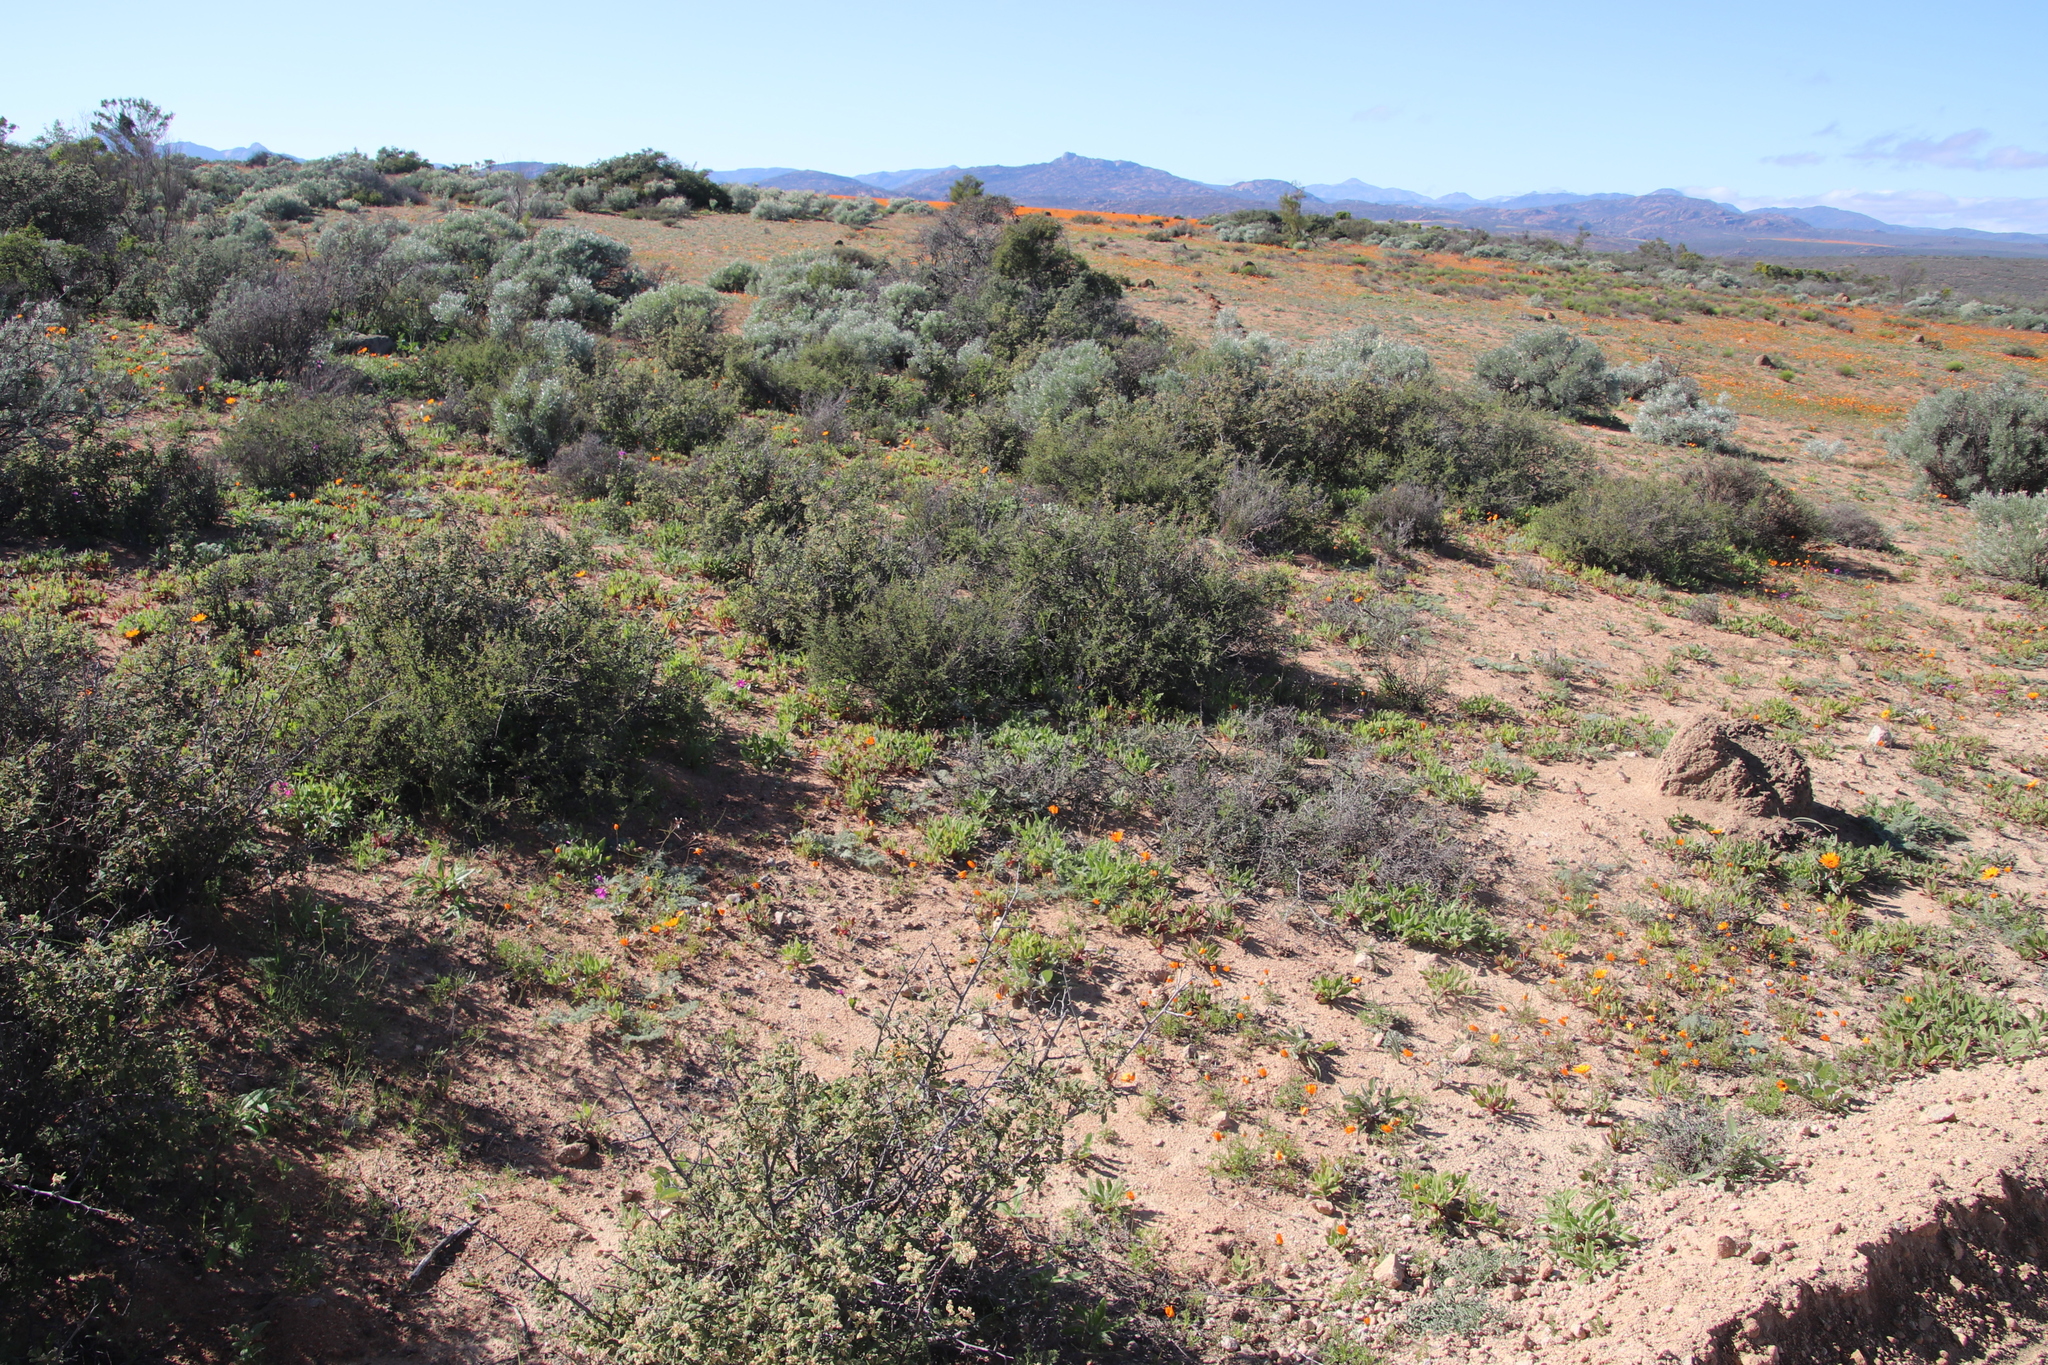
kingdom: Plantae
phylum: Tracheophyta
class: Magnoliopsida
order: Sapindales
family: Anacardiaceae
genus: Searsia
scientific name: Searsia incisa
